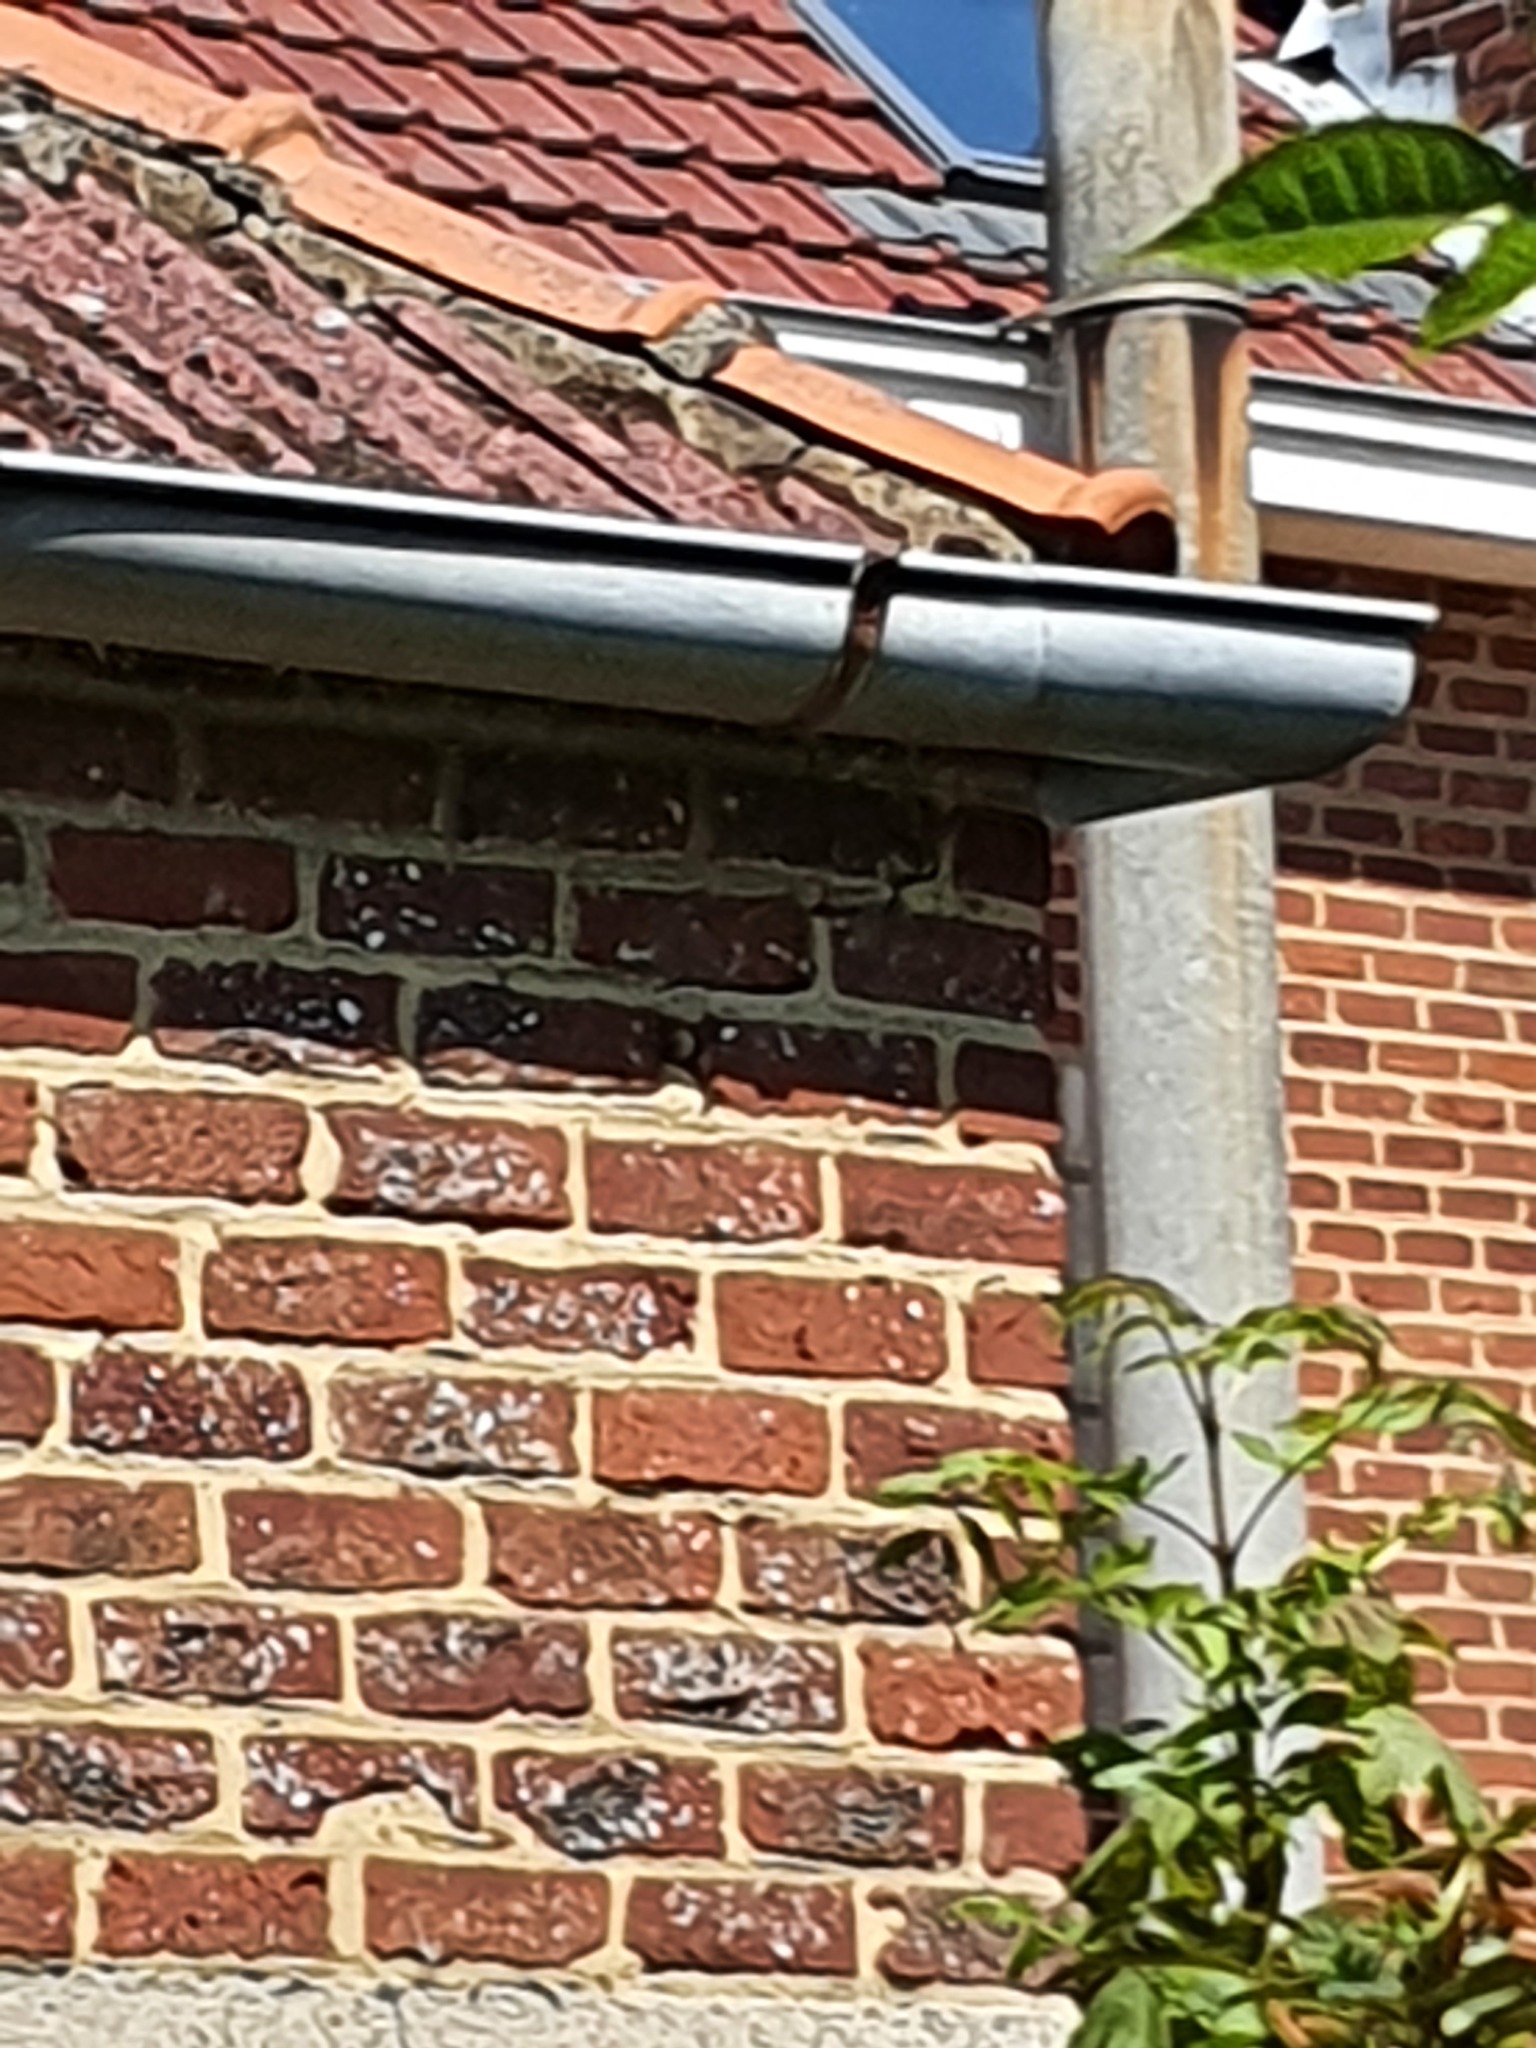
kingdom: Animalia
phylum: Arthropoda
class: Insecta
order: Hymenoptera
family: Vespidae
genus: Vespa
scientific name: Vespa crabro
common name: Hornet
